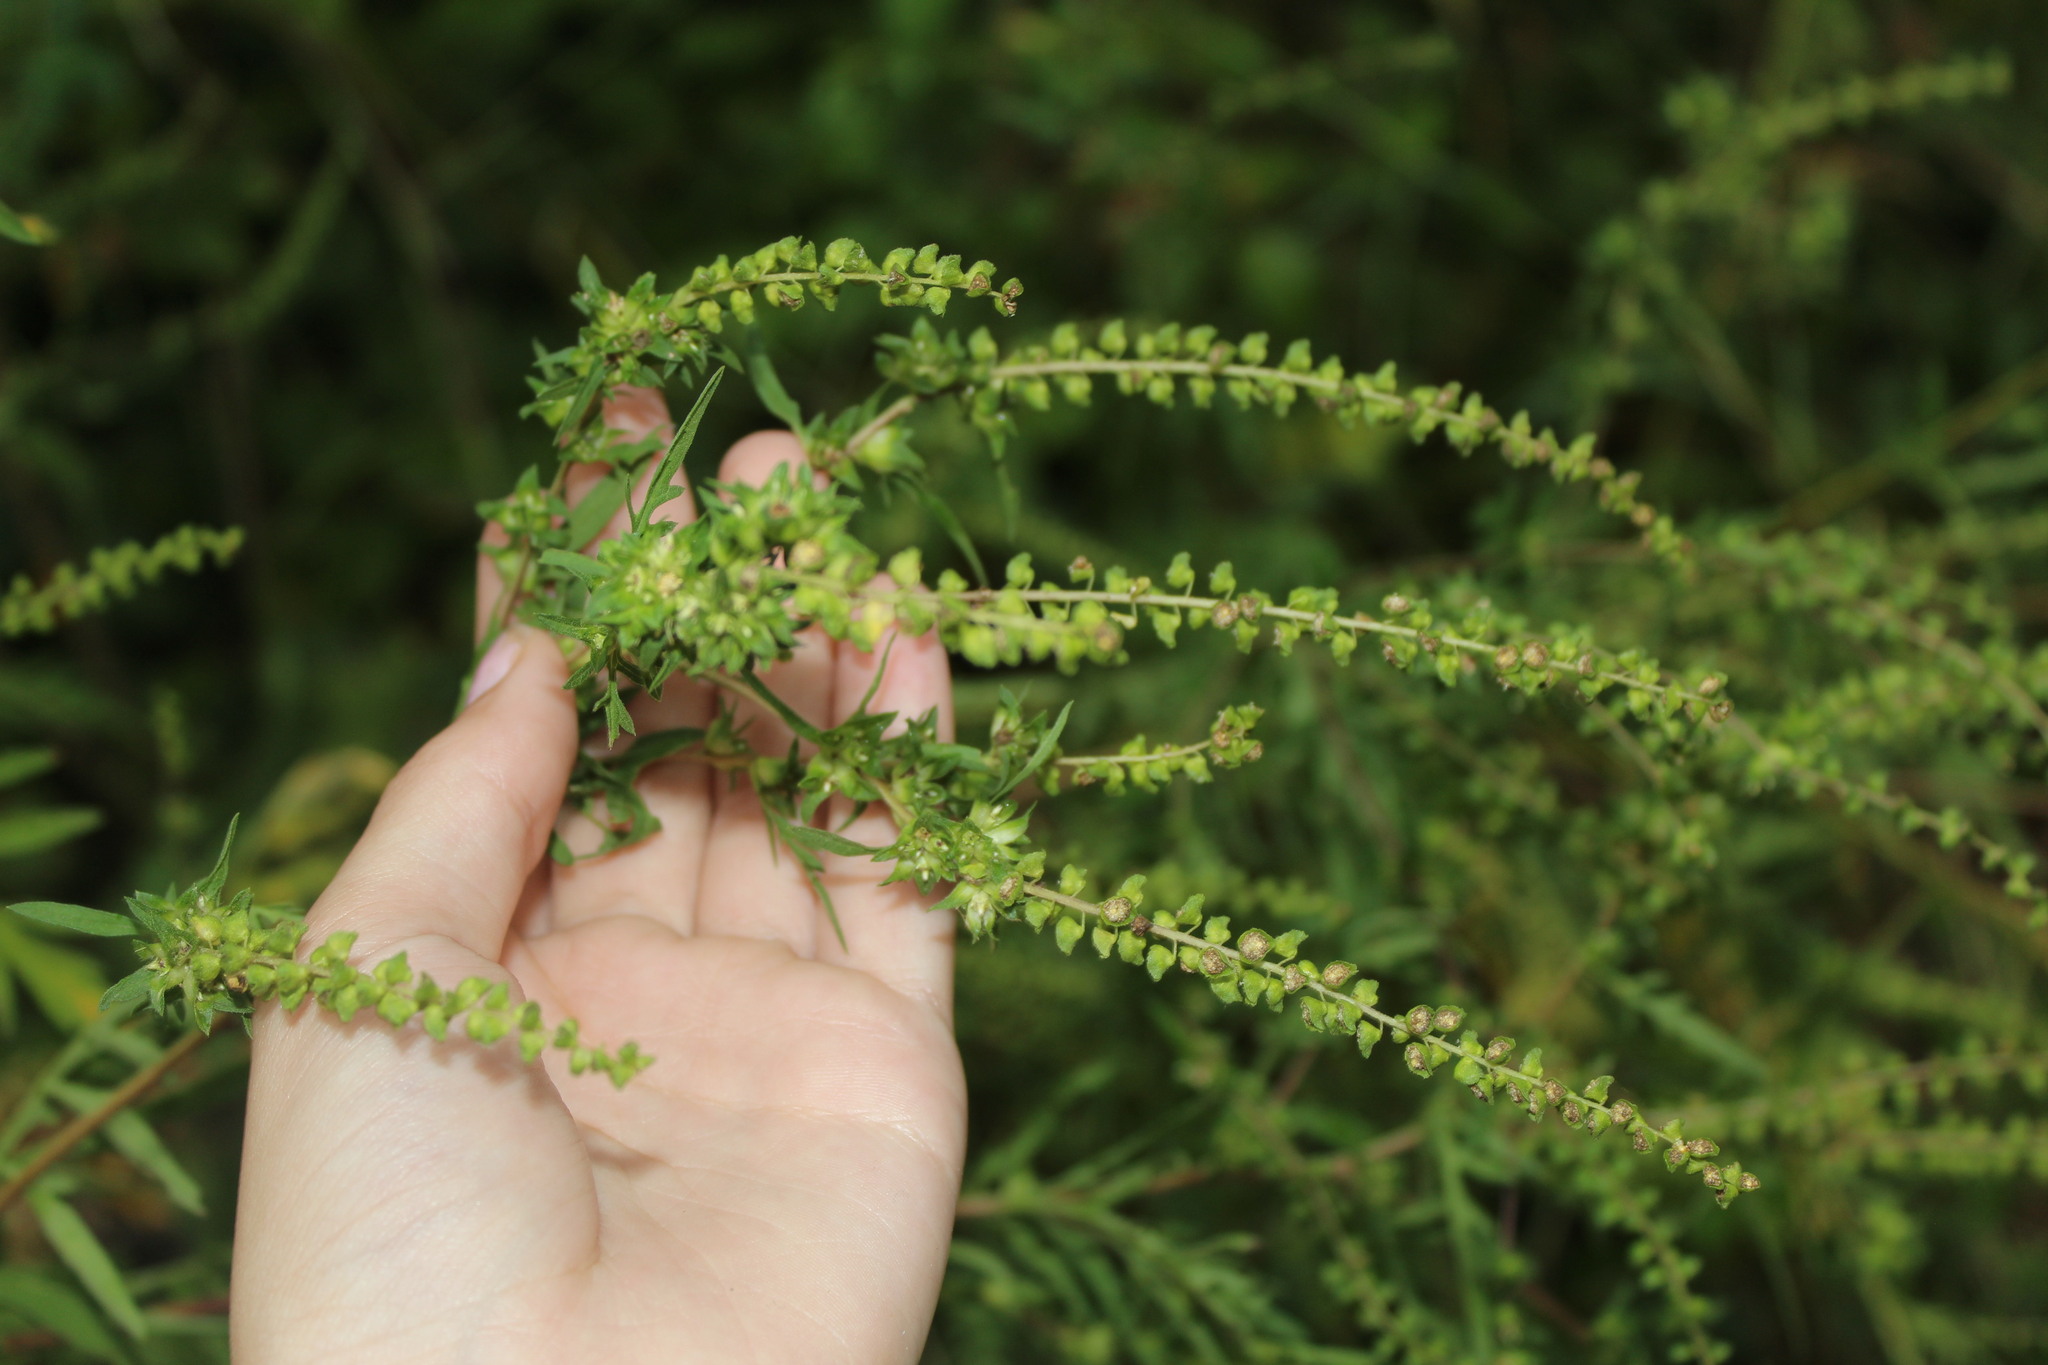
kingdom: Plantae
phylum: Tracheophyta
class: Magnoliopsida
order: Asterales
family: Asteraceae
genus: Ambrosia
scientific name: Ambrosia artemisiifolia
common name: Annual ragweed
